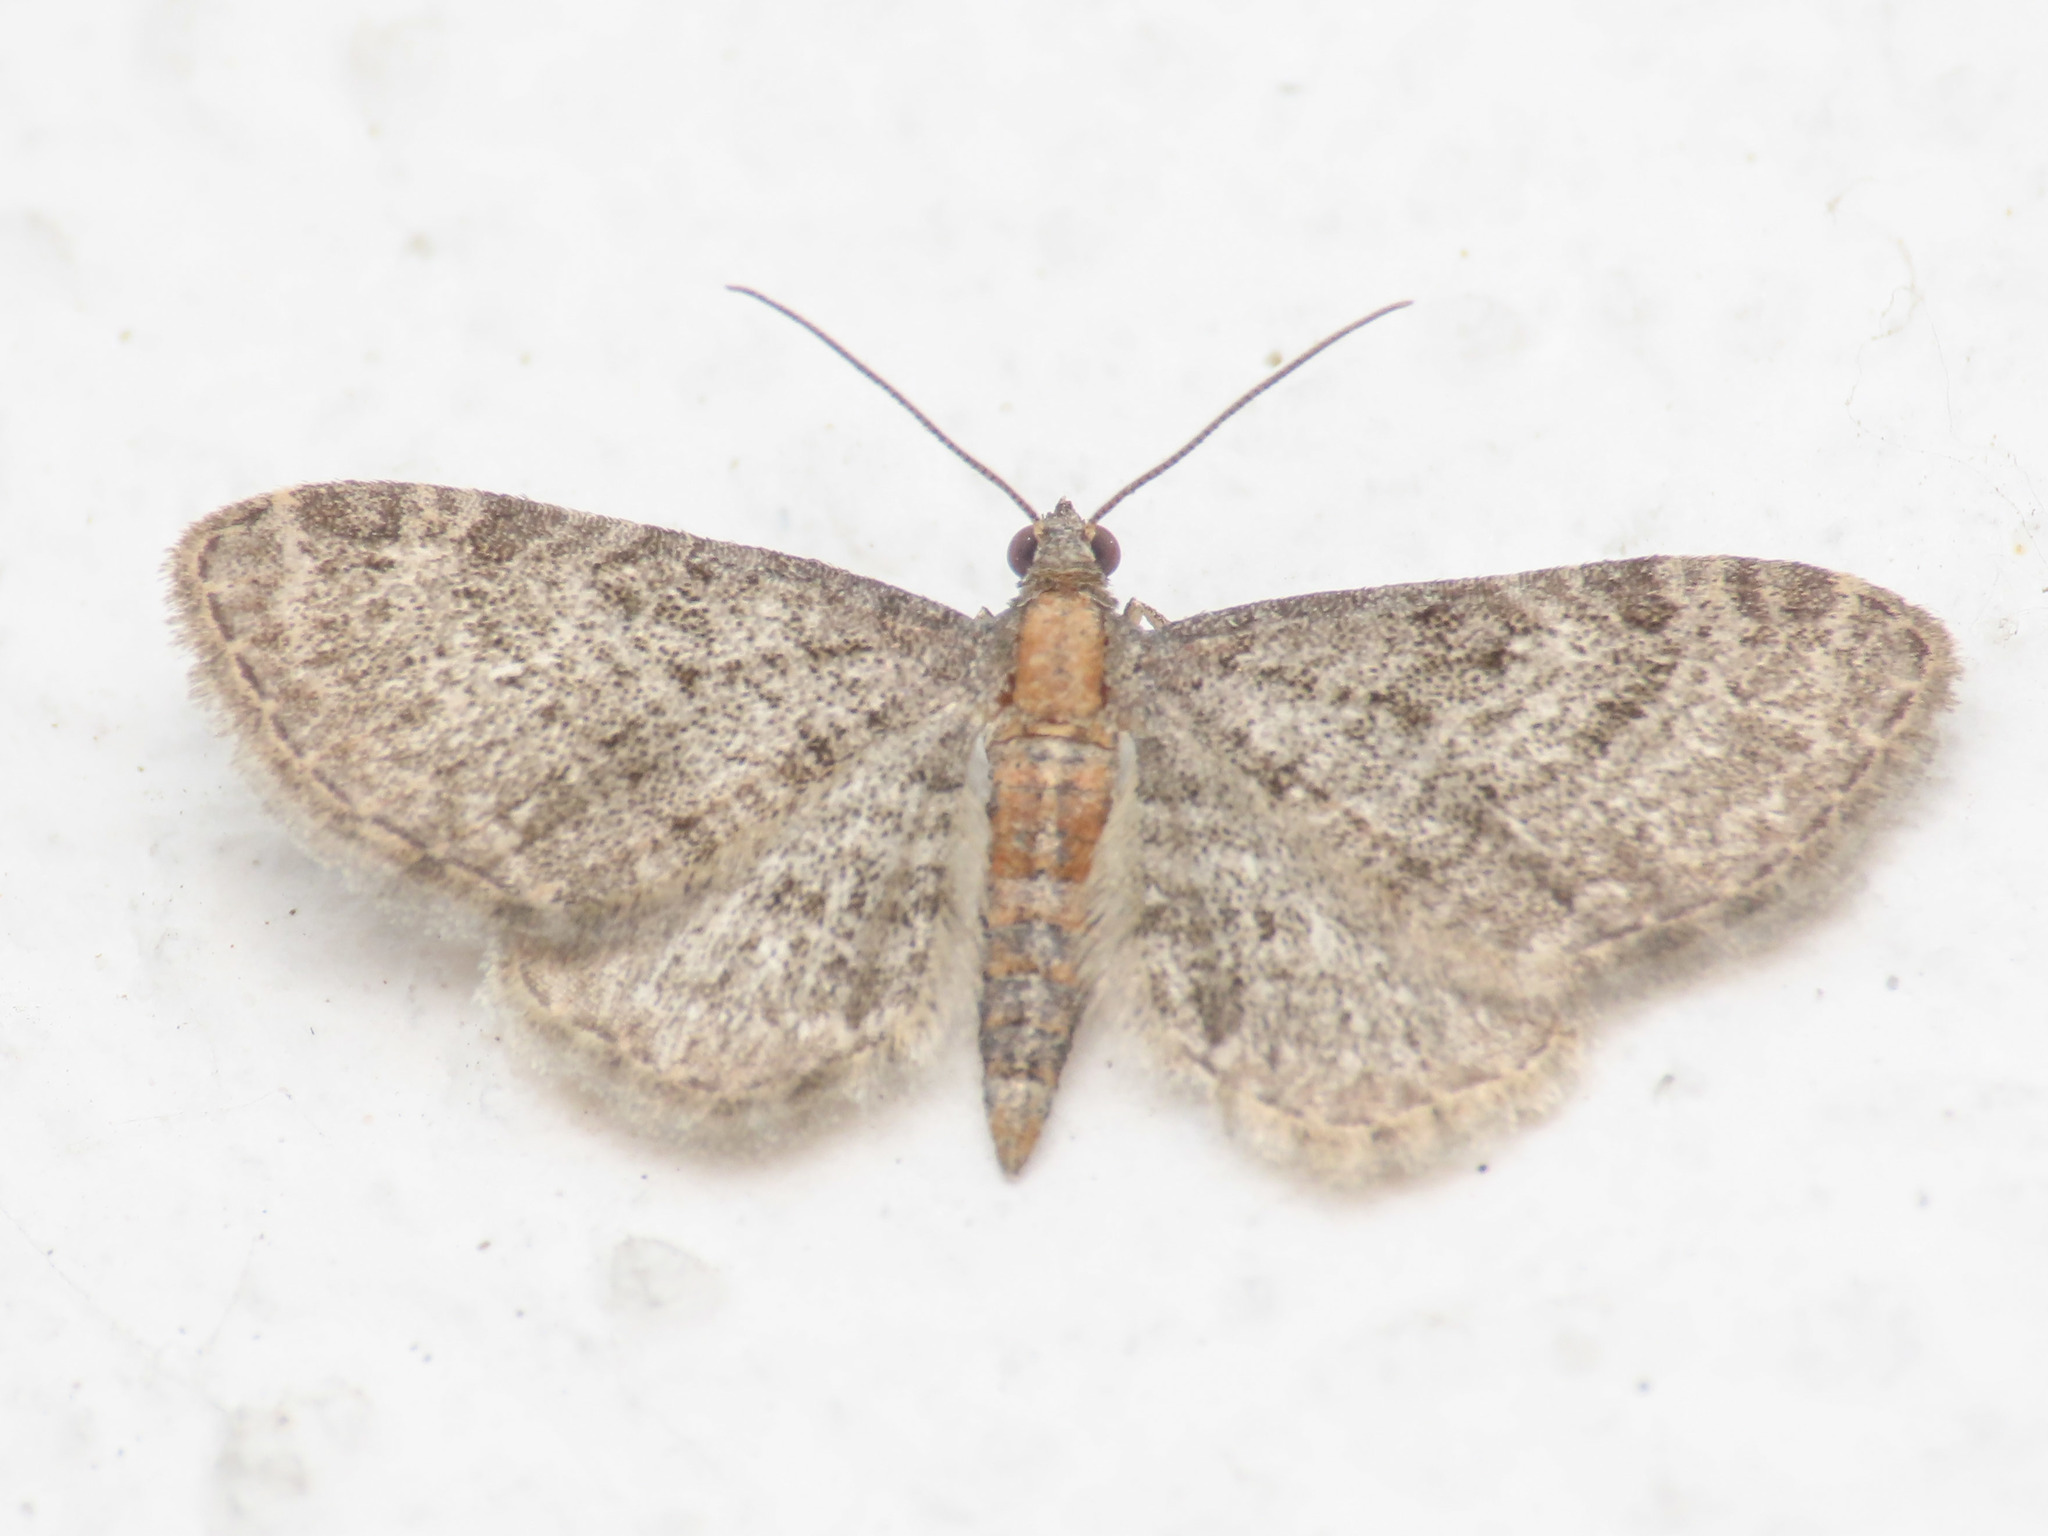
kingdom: Animalia
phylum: Arthropoda
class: Insecta
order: Lepidoptera
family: Geometridae
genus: Eupithecia
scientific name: Eupithecia haworthiata
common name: Haworth's pug
